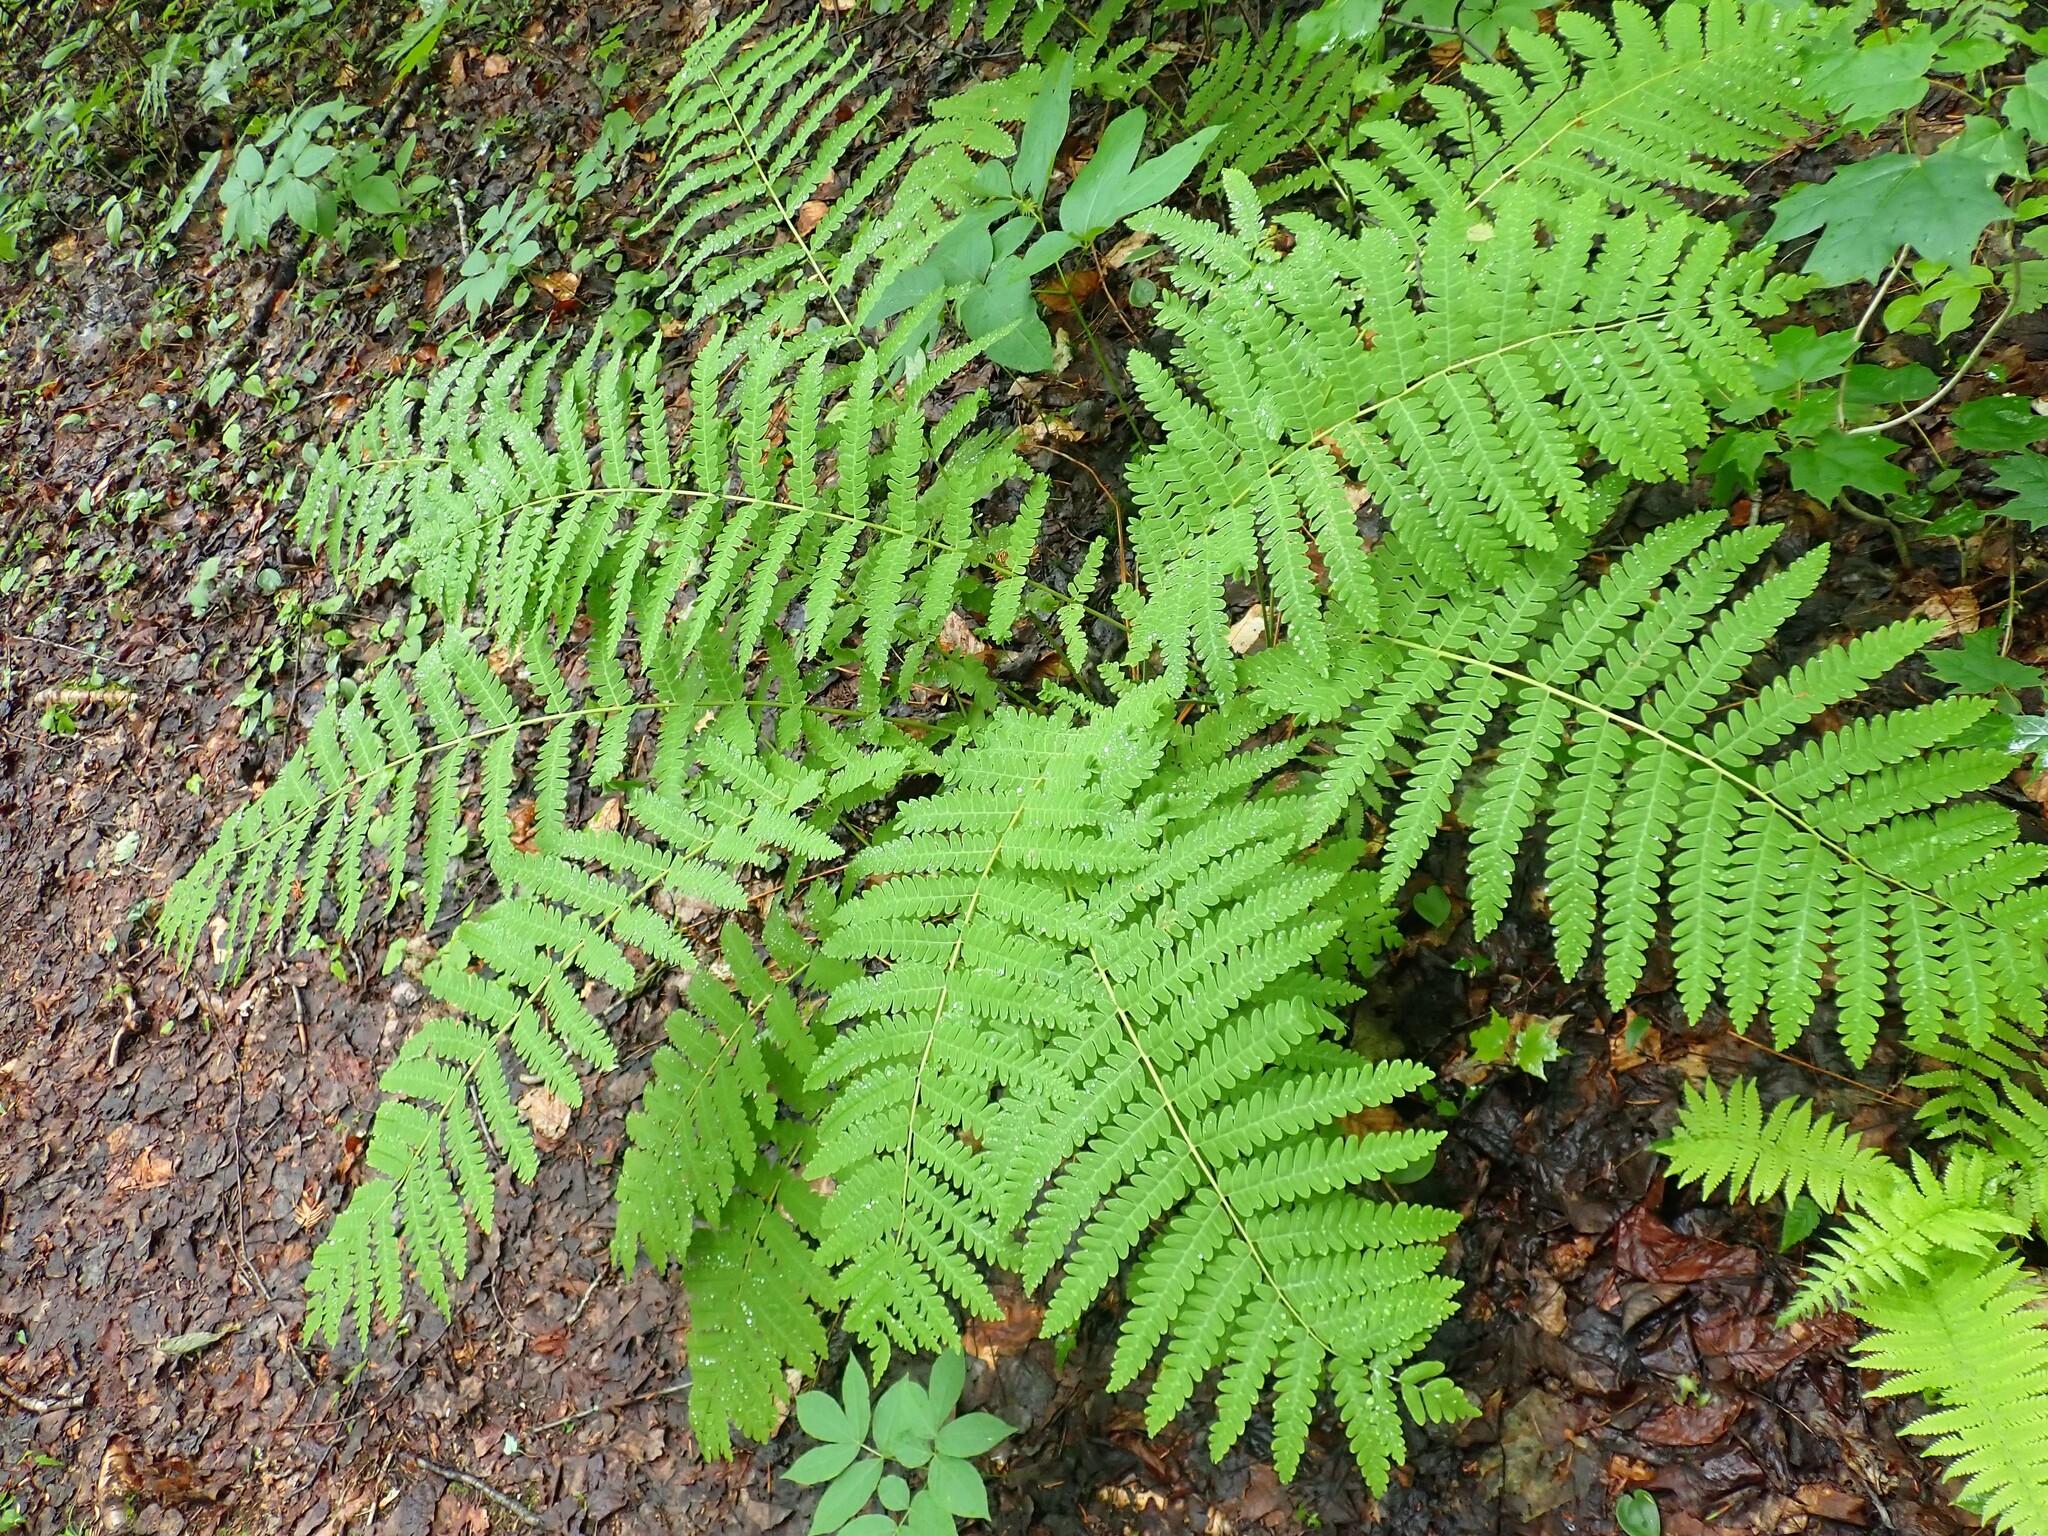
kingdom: Plantae
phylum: Tracheophyta
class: Polypodiopsida
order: Osmundales
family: Osmundaceae
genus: Claytosmunda
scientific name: Claytosmunda claytoniana
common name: Clayton's fern
